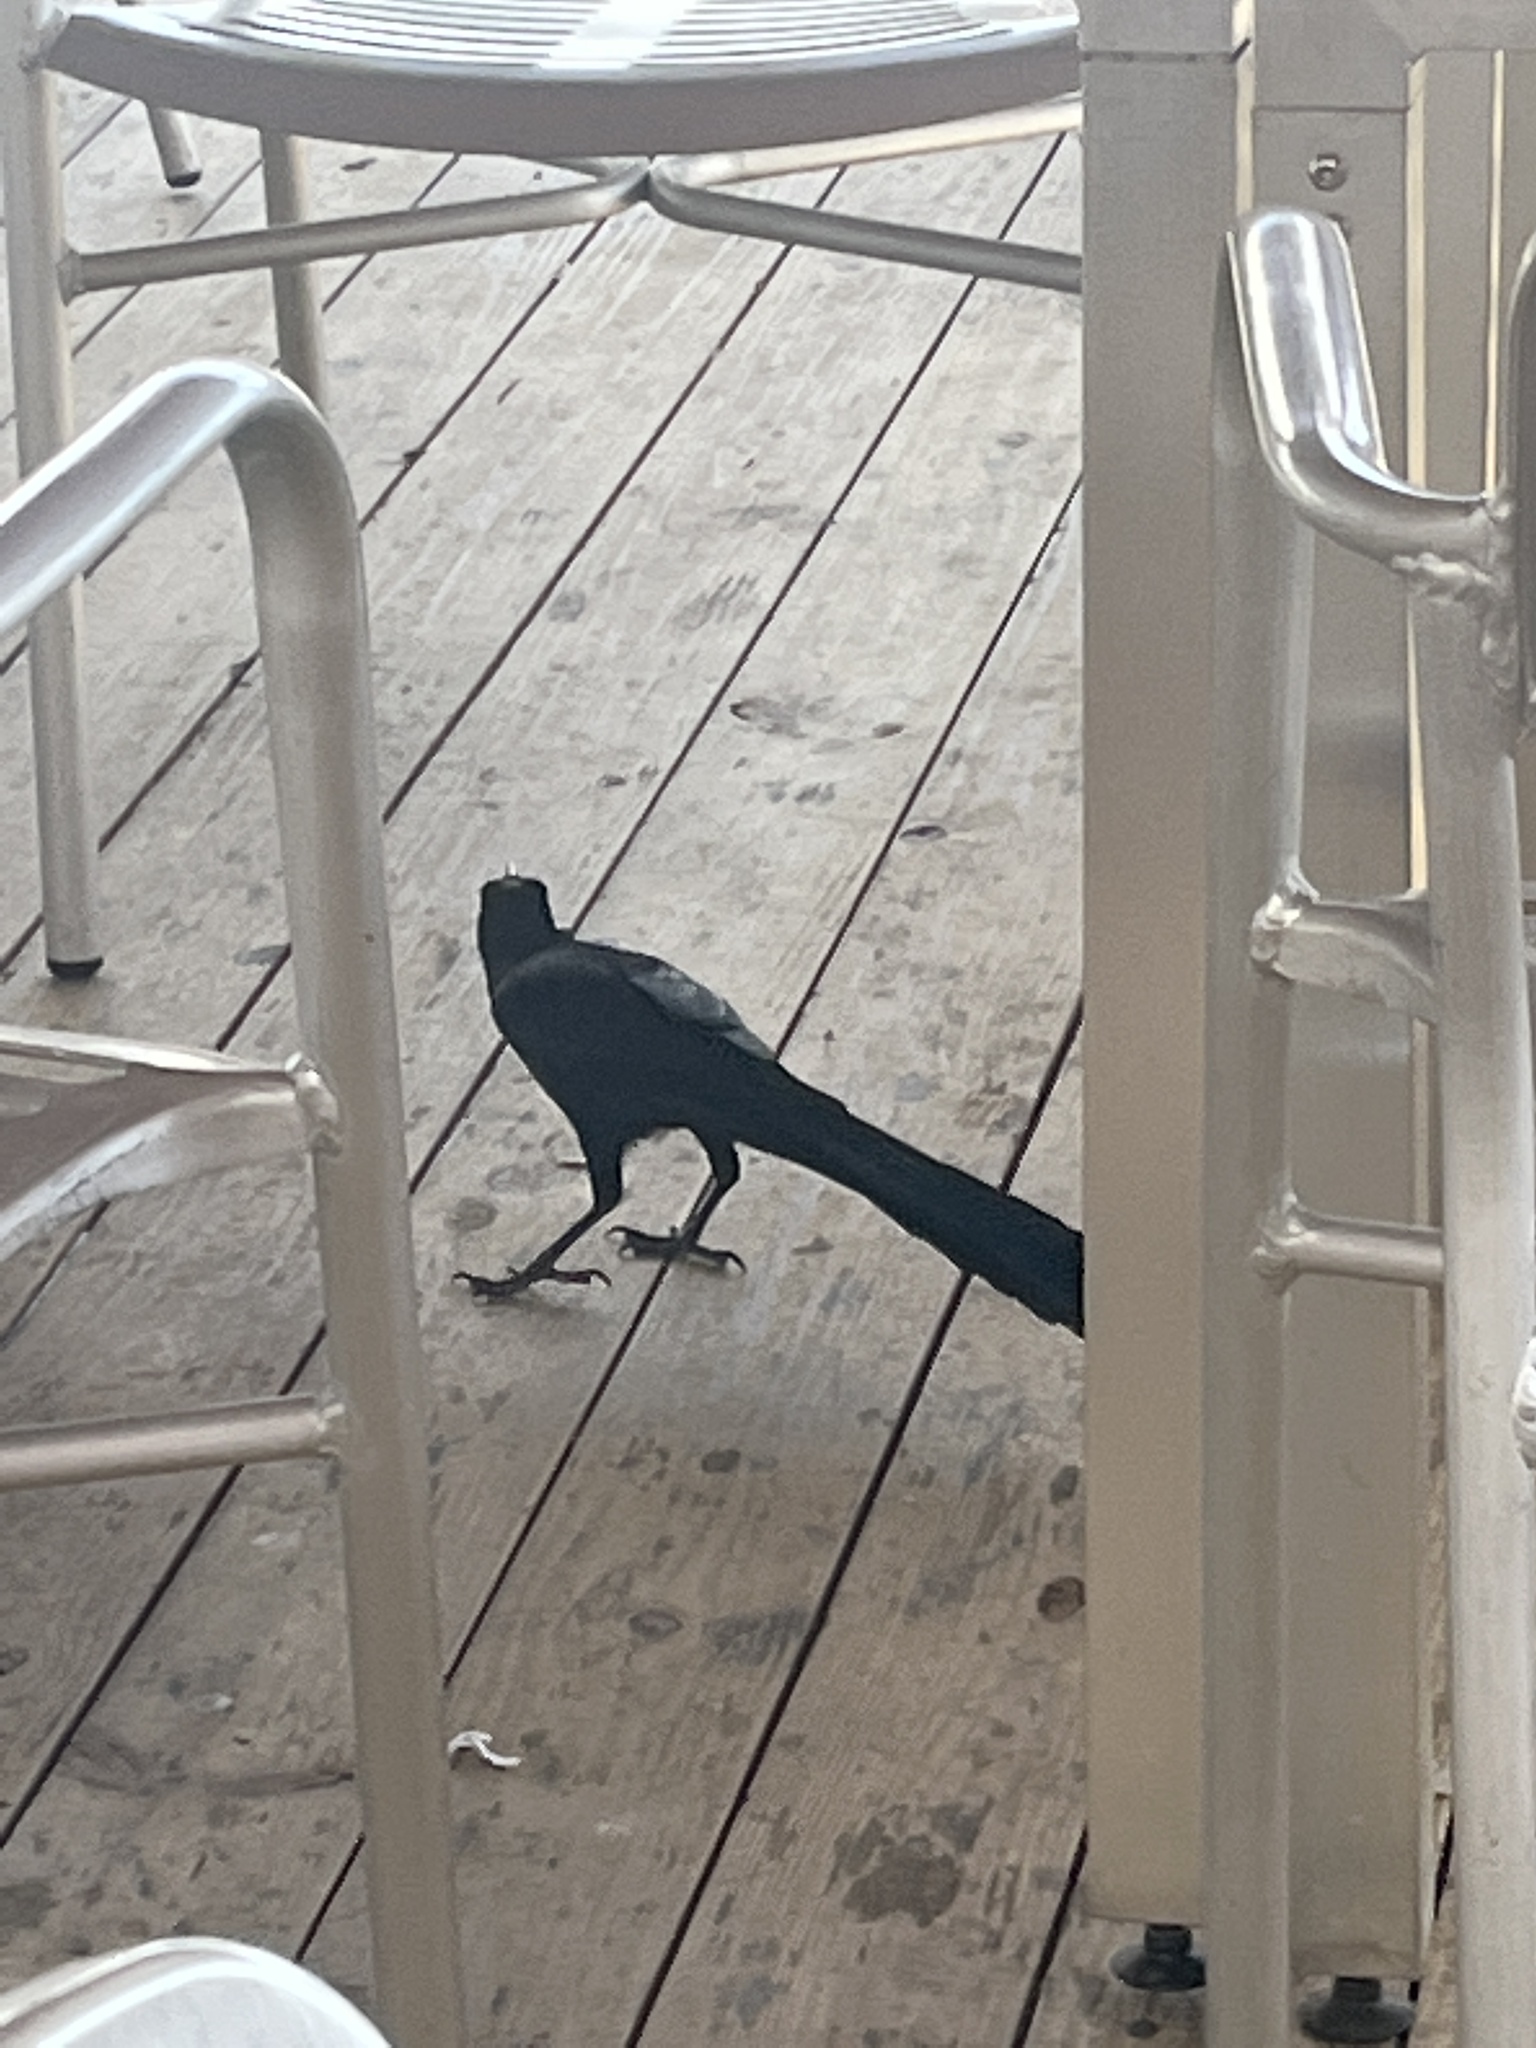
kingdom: Animalia
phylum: Chordata
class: Aves
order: Passeriformes
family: Icteridae
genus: Quiscalus
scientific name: Quiscalus mexicanus
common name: Great-tailed grackle
